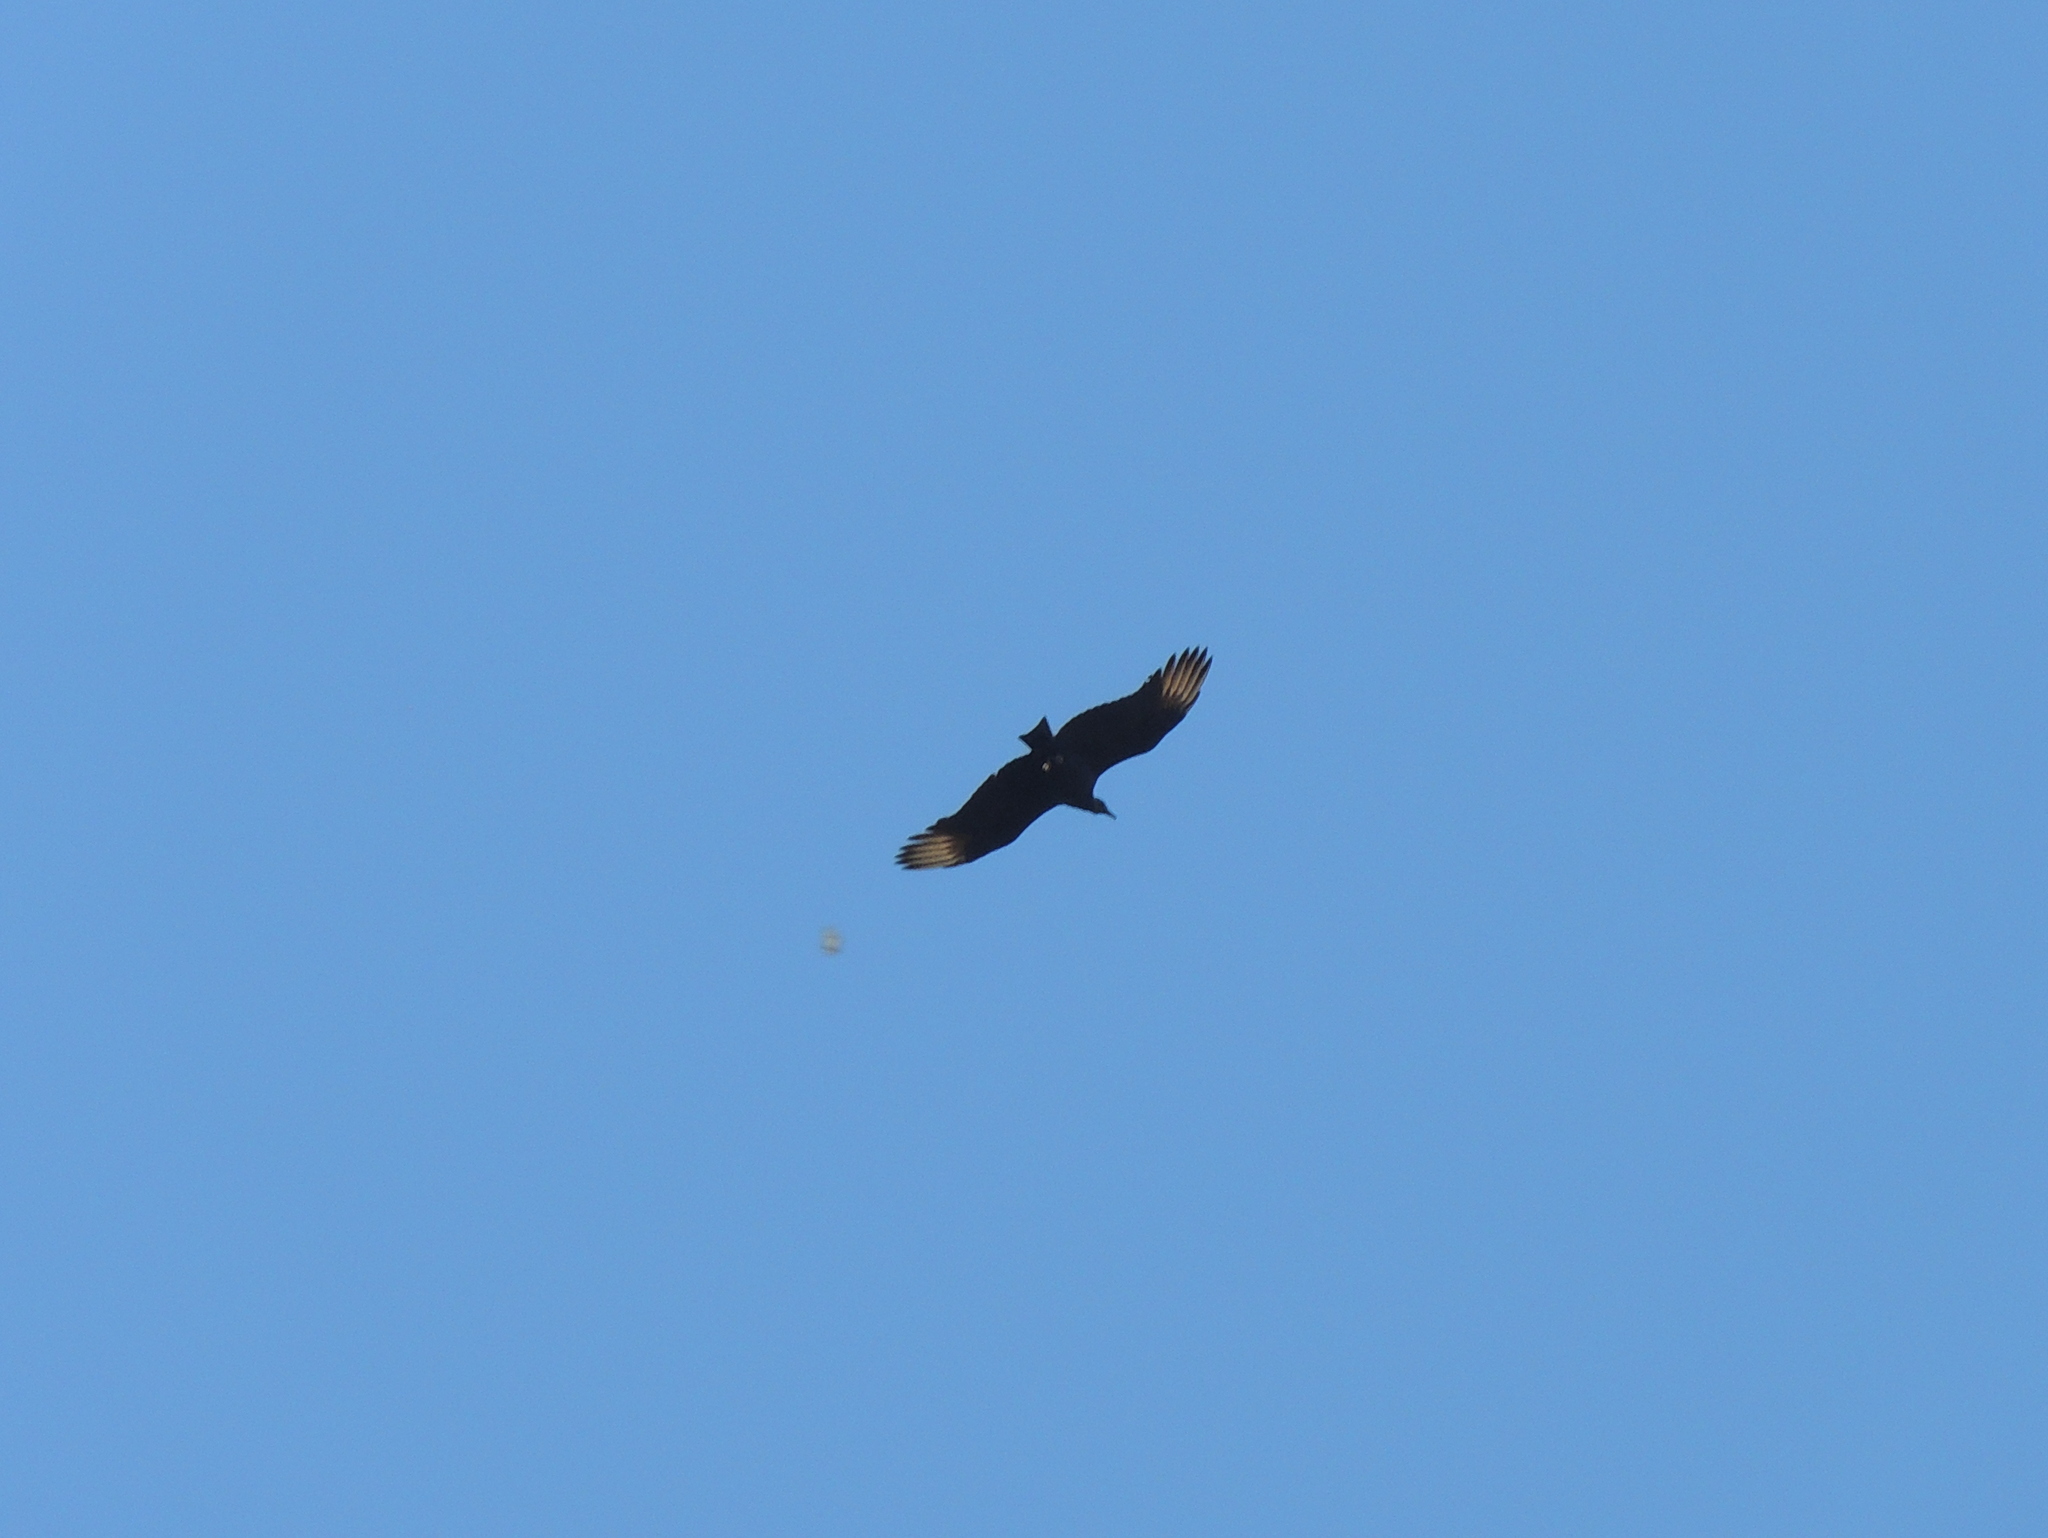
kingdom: Animalia
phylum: Chordata
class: Aves
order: Accipitriformes
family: Cathartidae
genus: Coragyps
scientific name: Coragyps atratus
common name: Black vulture
